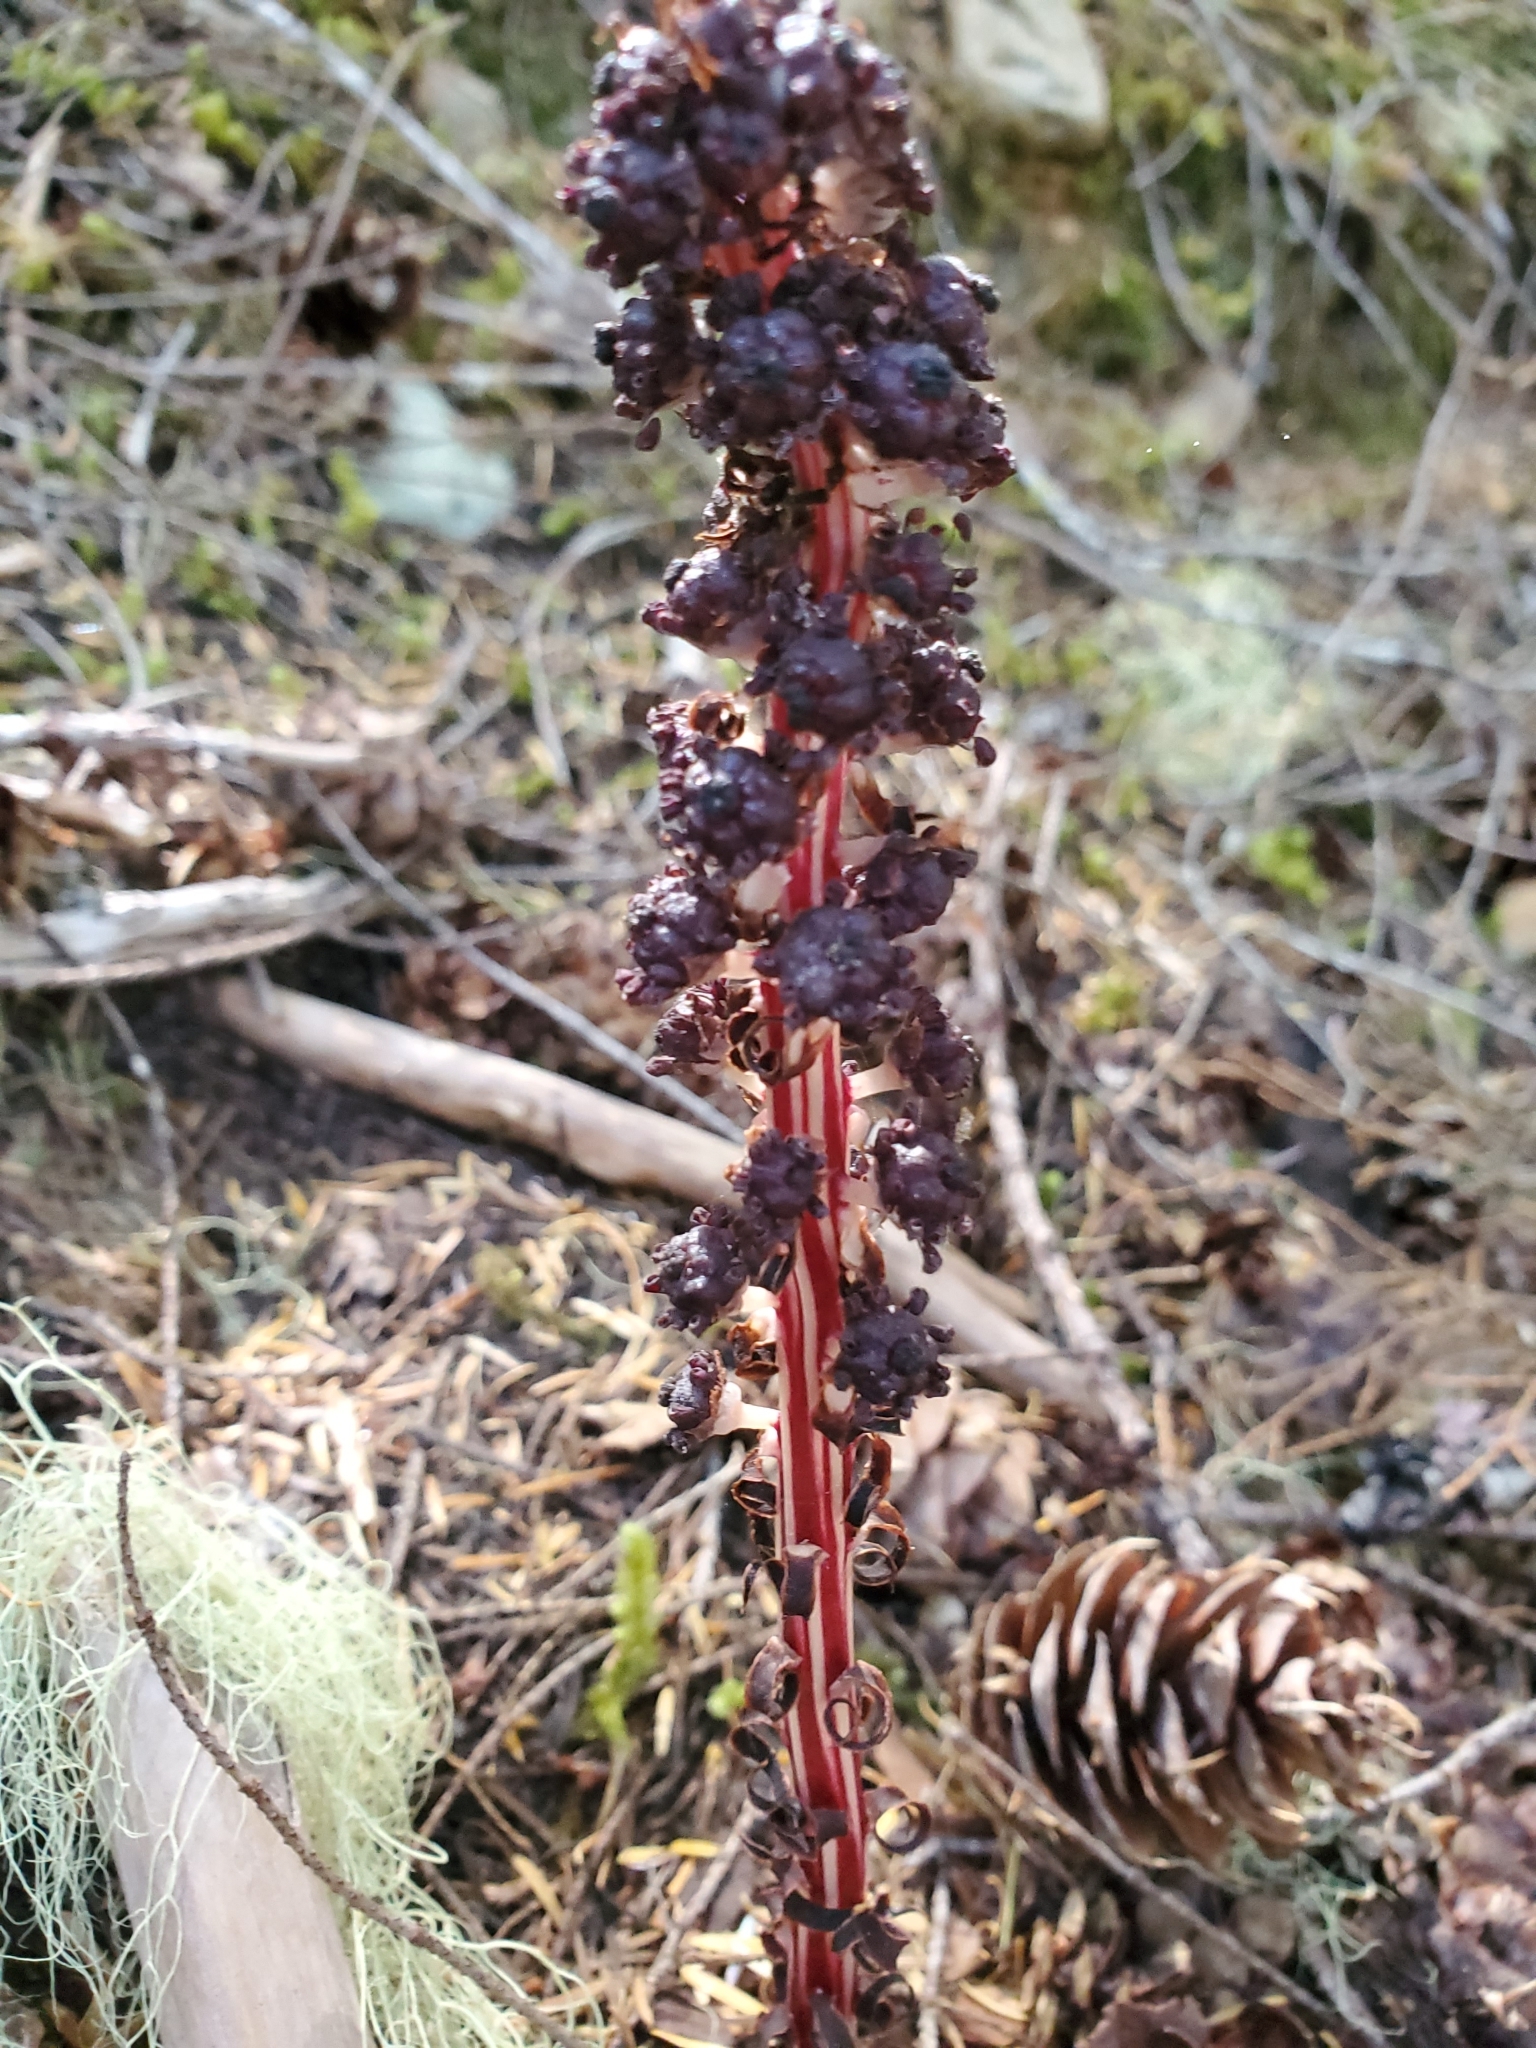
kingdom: Plantae
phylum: Tracheophyta
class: Magnoliopsida
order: Ericales
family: Ericaceae
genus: Allotropa
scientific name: Allotropa virgata
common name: Candy-striped allotropa
